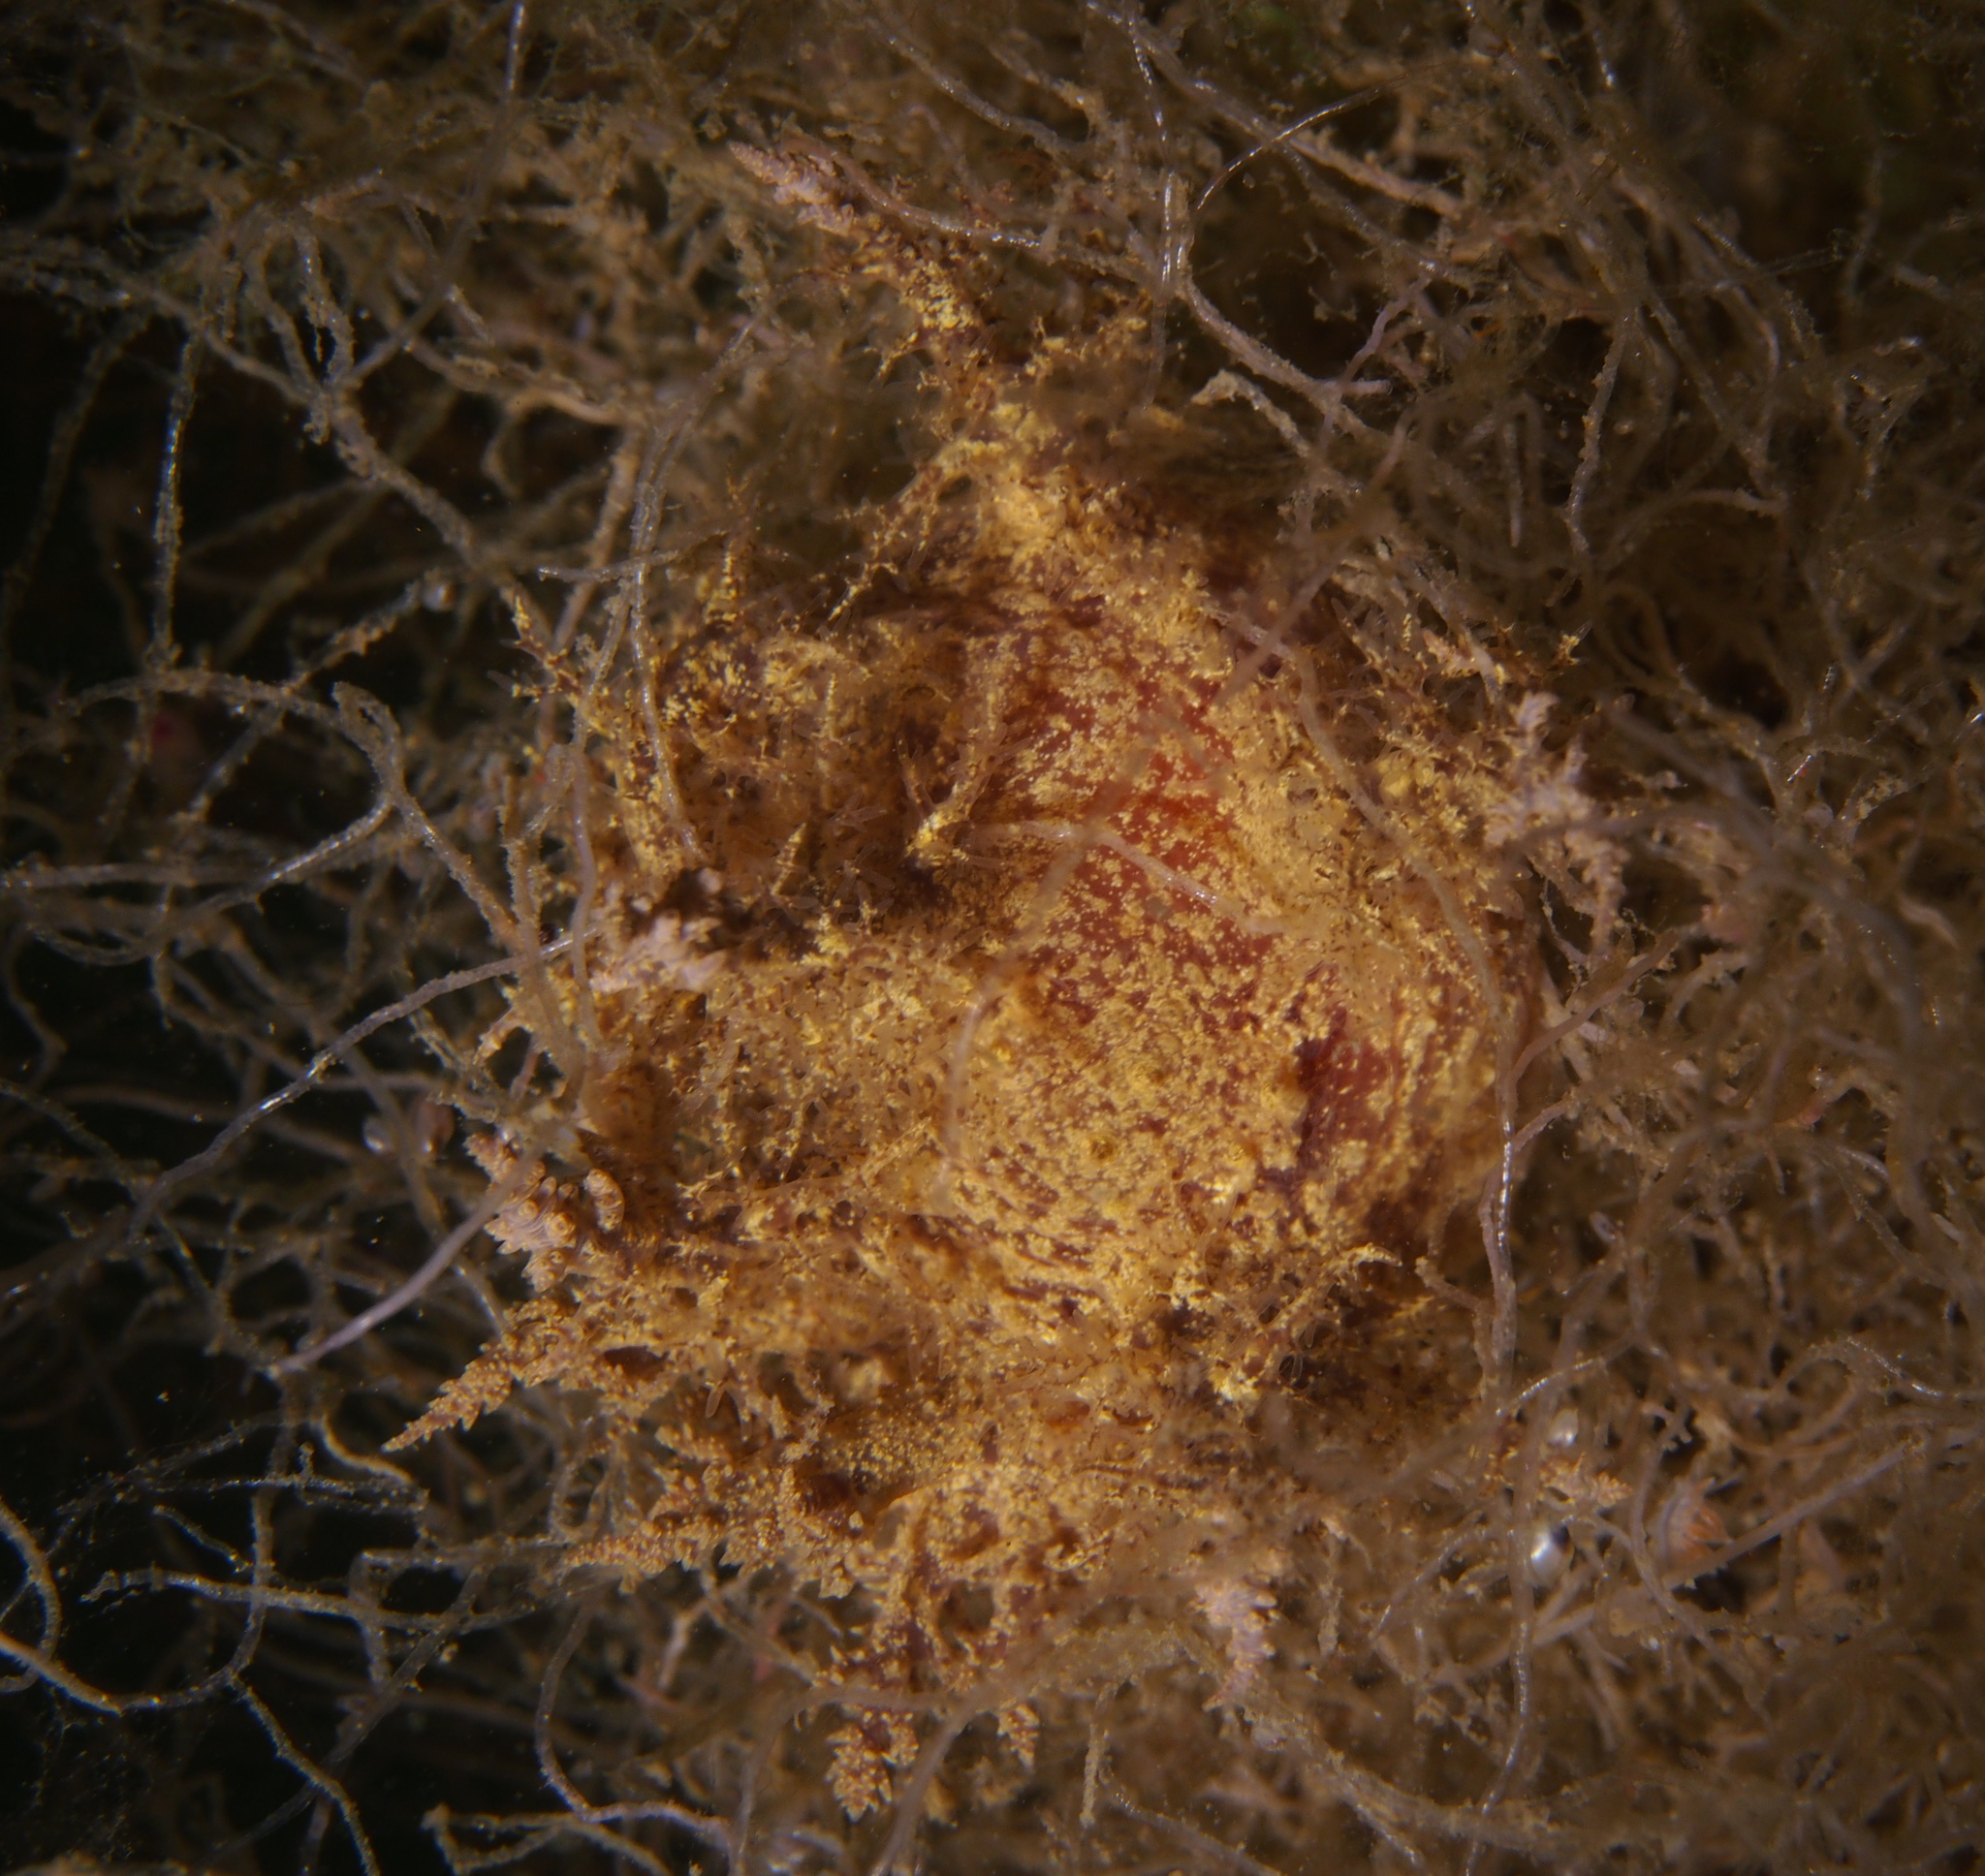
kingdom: Animalia
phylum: Mollusca
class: Gastropoda
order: Nudibranchia
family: Dendronotidae
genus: Dendronotus
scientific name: Dendronotus europaeus
